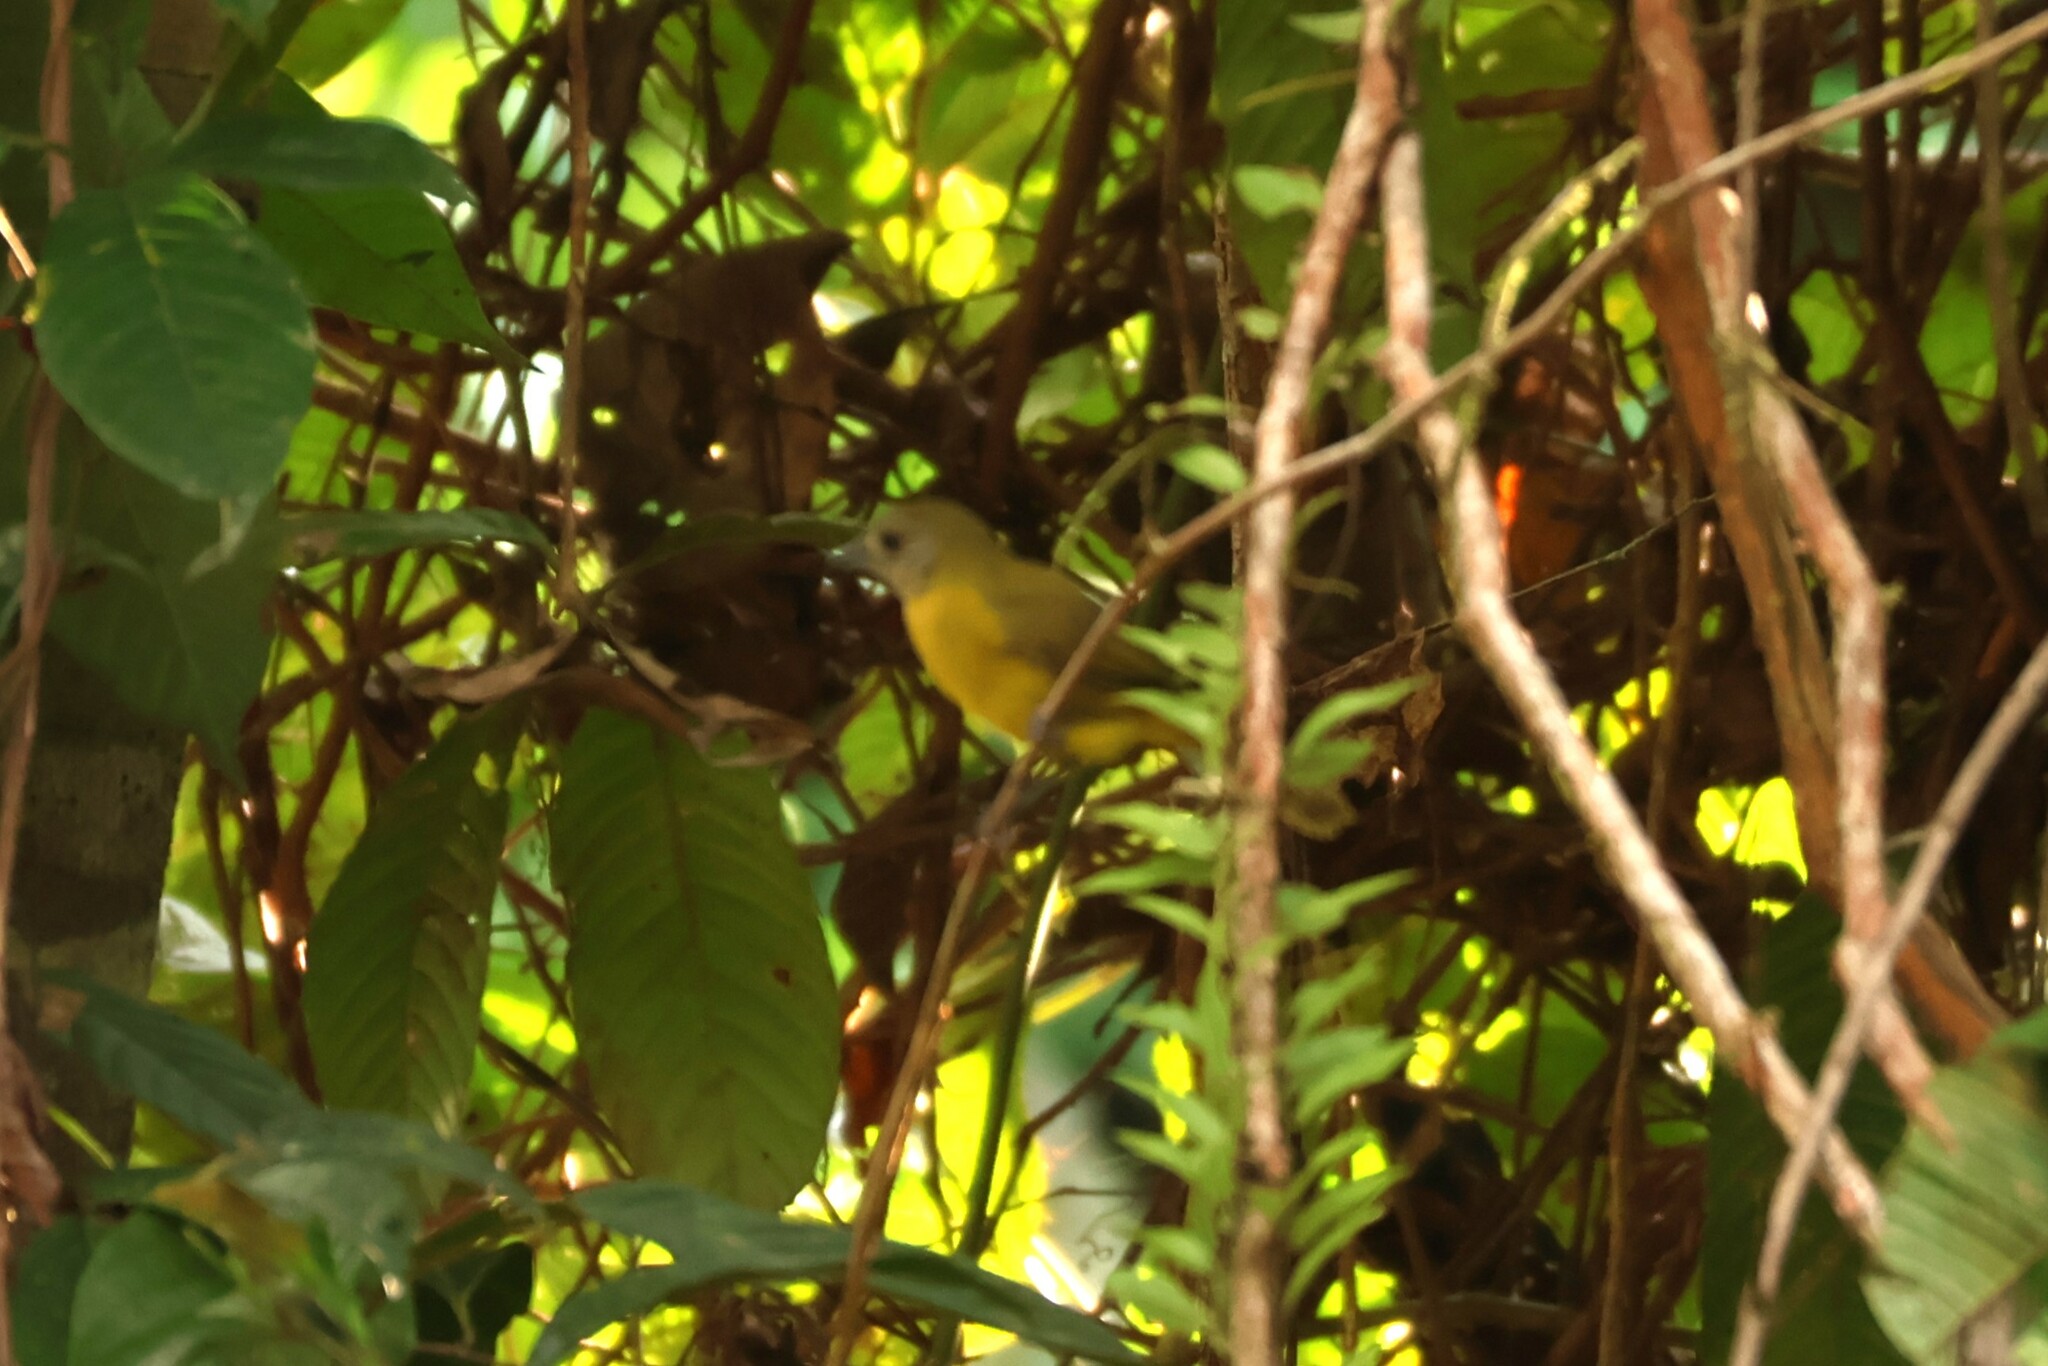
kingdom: Animalia
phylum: Chordata
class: Aves
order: Passeriformes
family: Thraupidae
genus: Loriotus
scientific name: Loriotus luctuosus
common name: White-shouldered tanager
